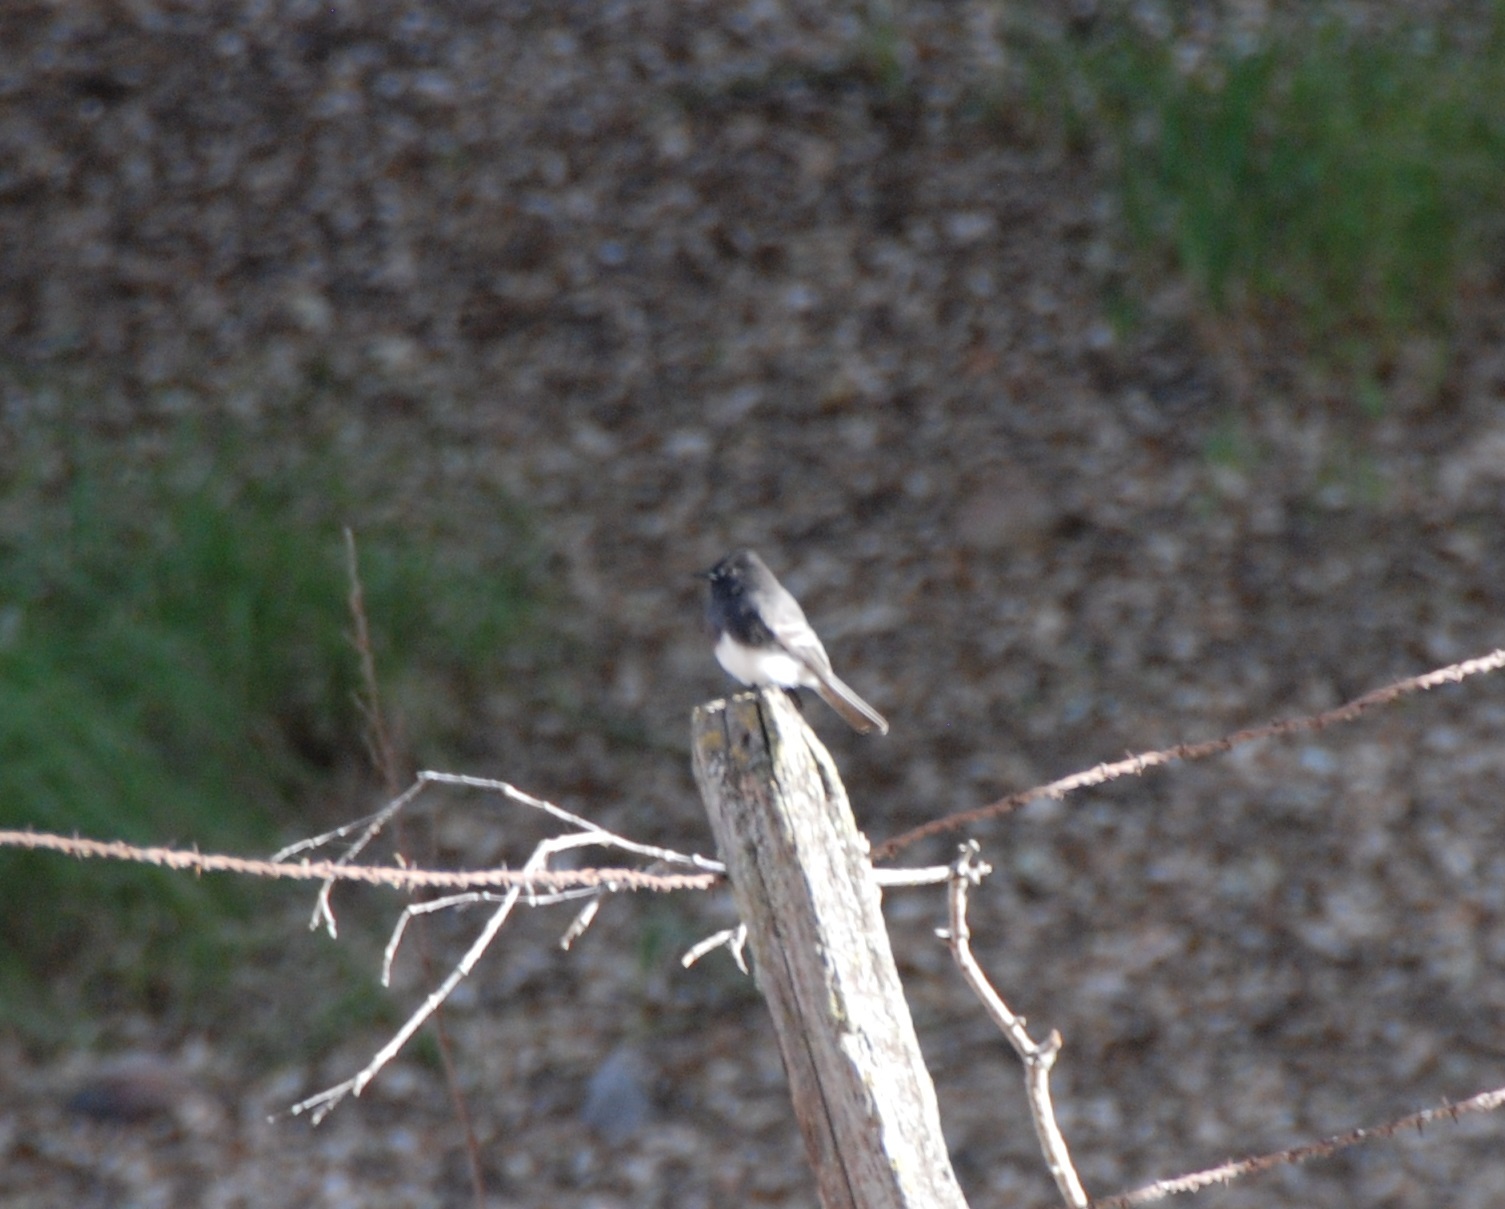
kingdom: Animalia
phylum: Chordata
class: Aves
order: Passeriformes
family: Tyrannidae
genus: Sayornis
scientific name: Sayornis nigricans
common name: Black phoebe
